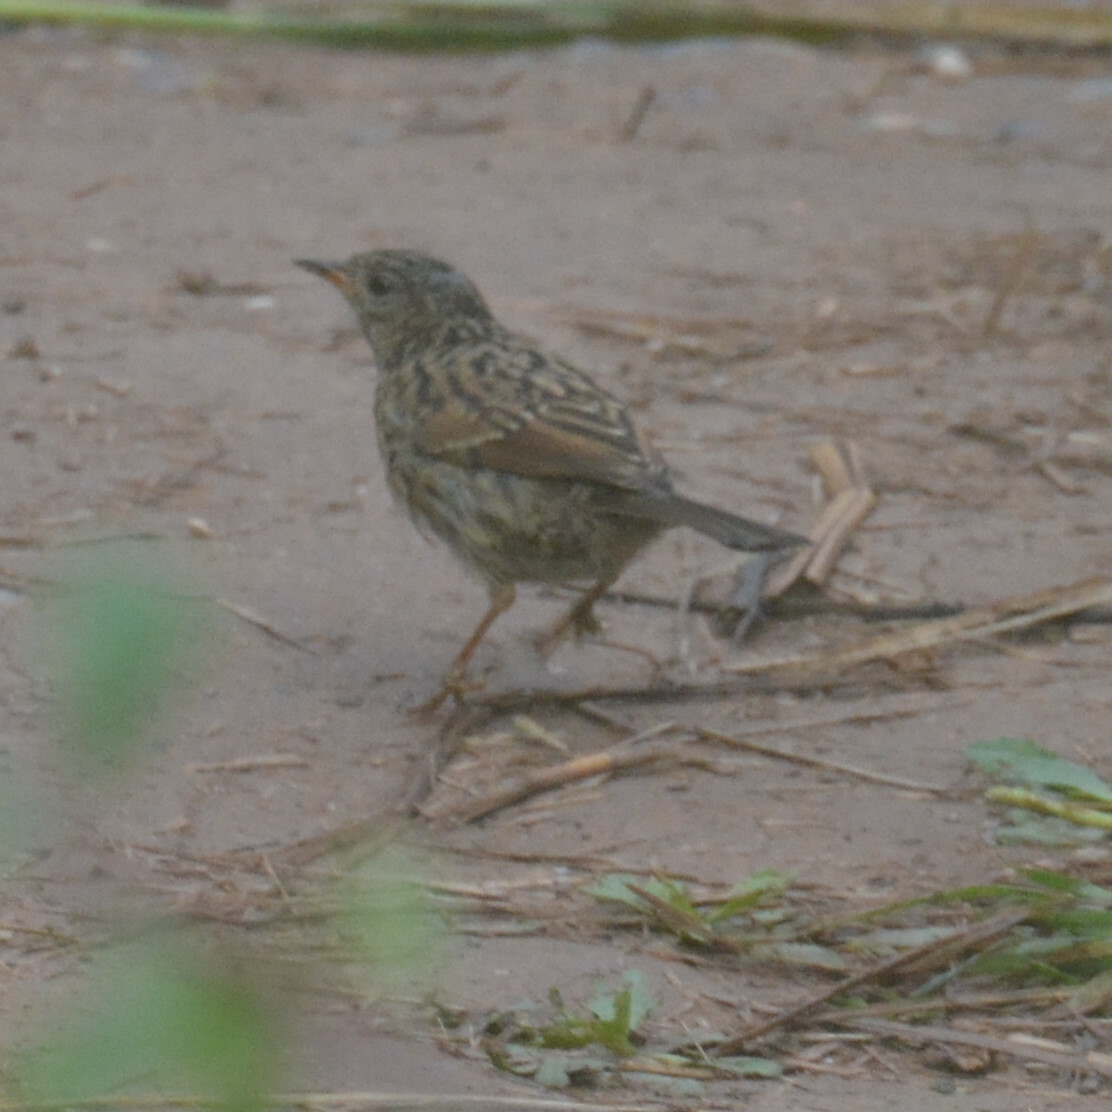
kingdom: Animalia
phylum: Chordata
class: Aves
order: Passeriformes
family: Prunellidae
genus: Prunella
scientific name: Prunella modularis
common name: Dunnock
